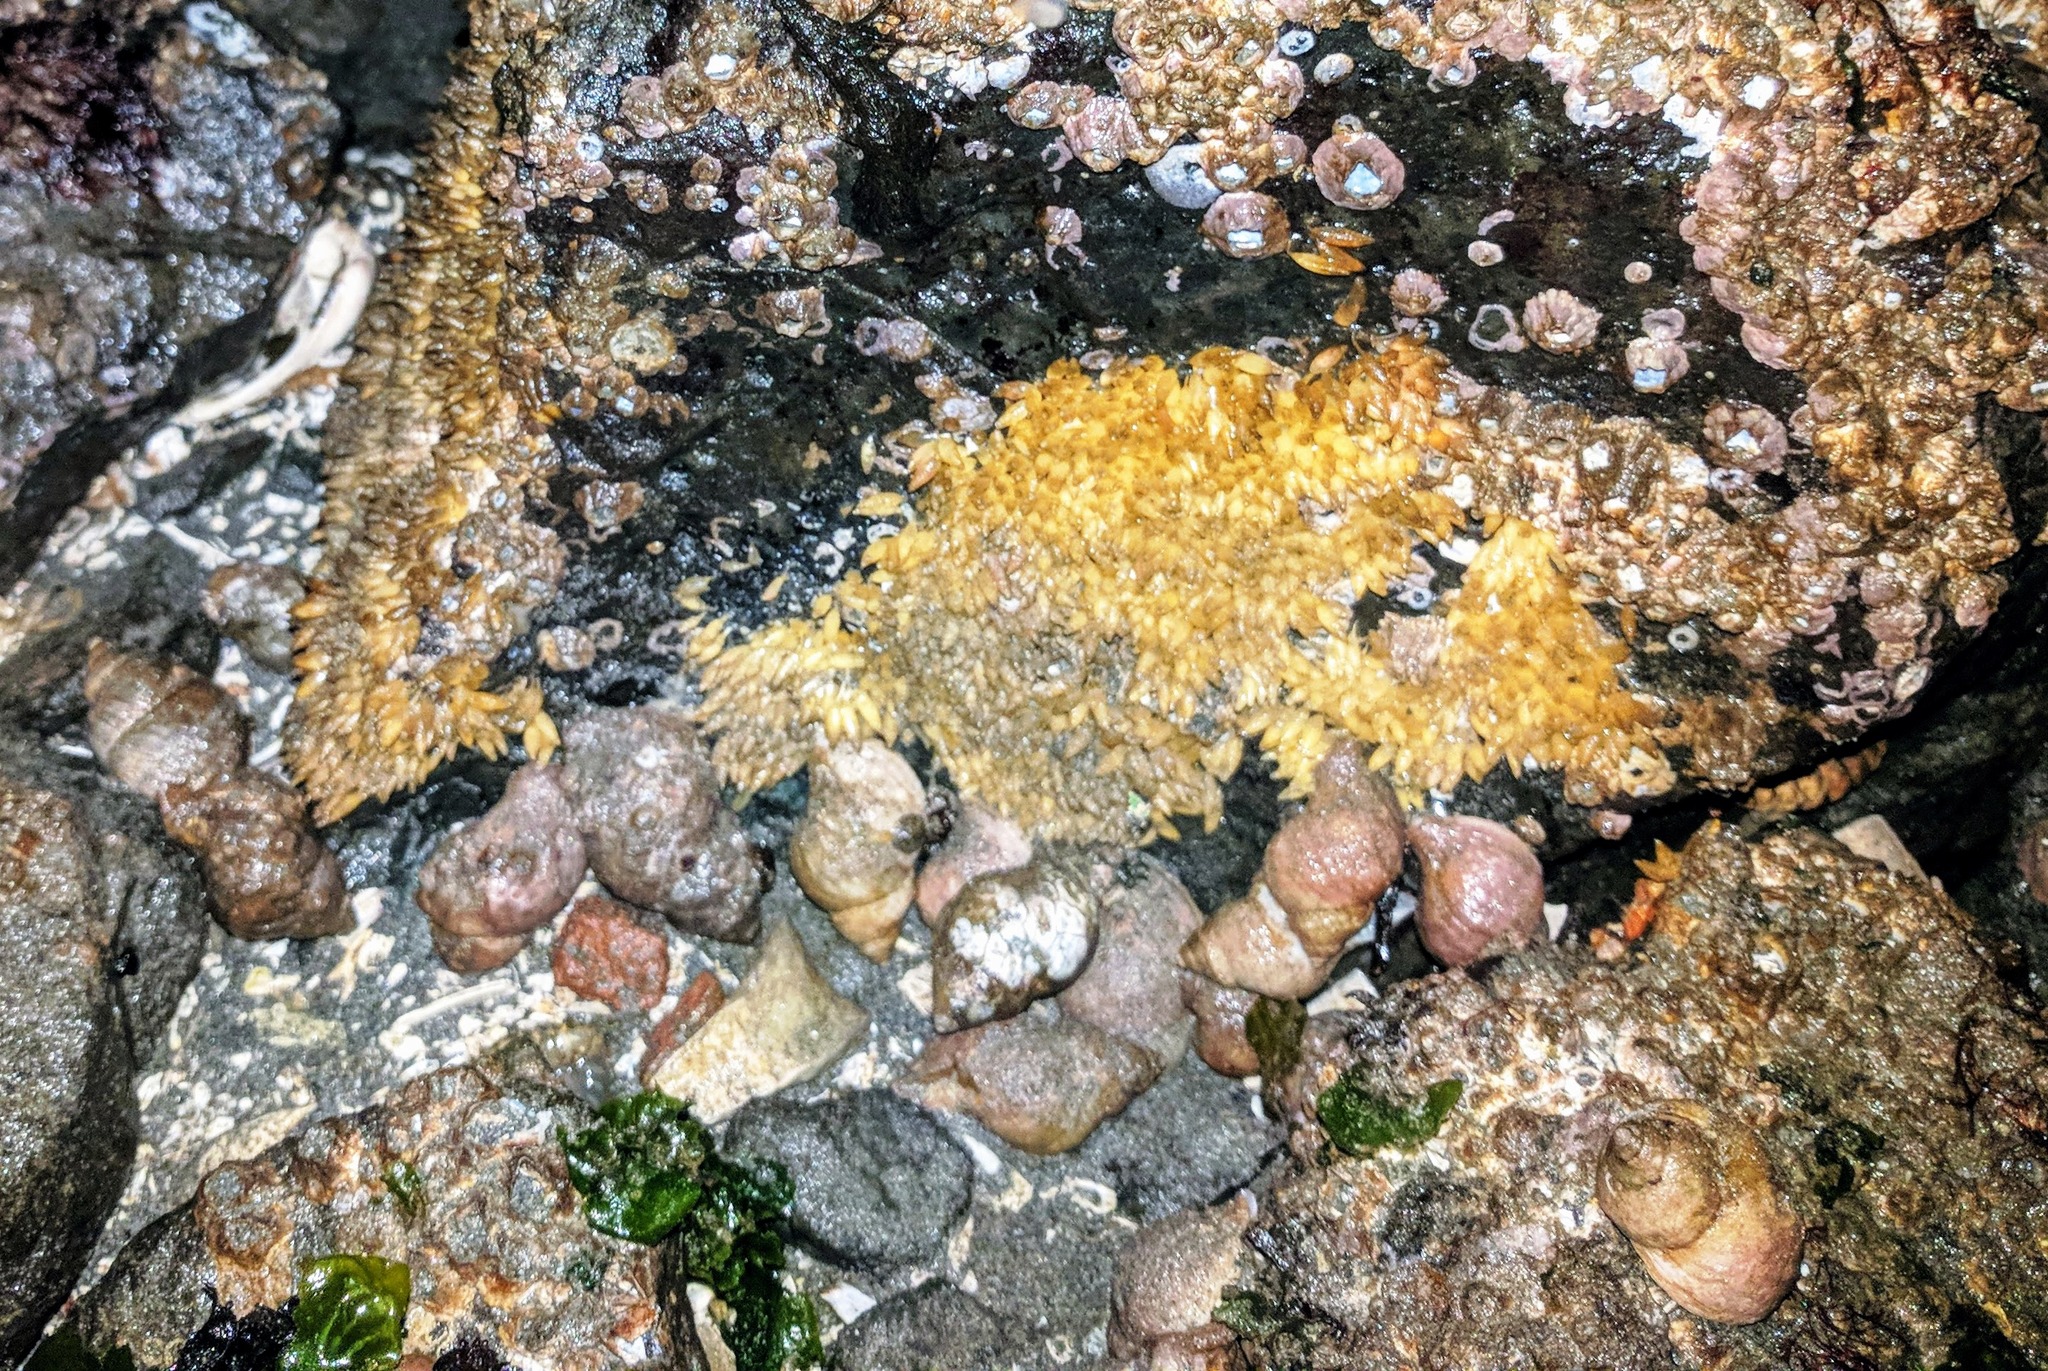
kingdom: Animalia
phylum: Mollusca
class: Gastropoda
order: Neogastropoda
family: Muricidae
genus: Nucella
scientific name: Nucella lamellosa
